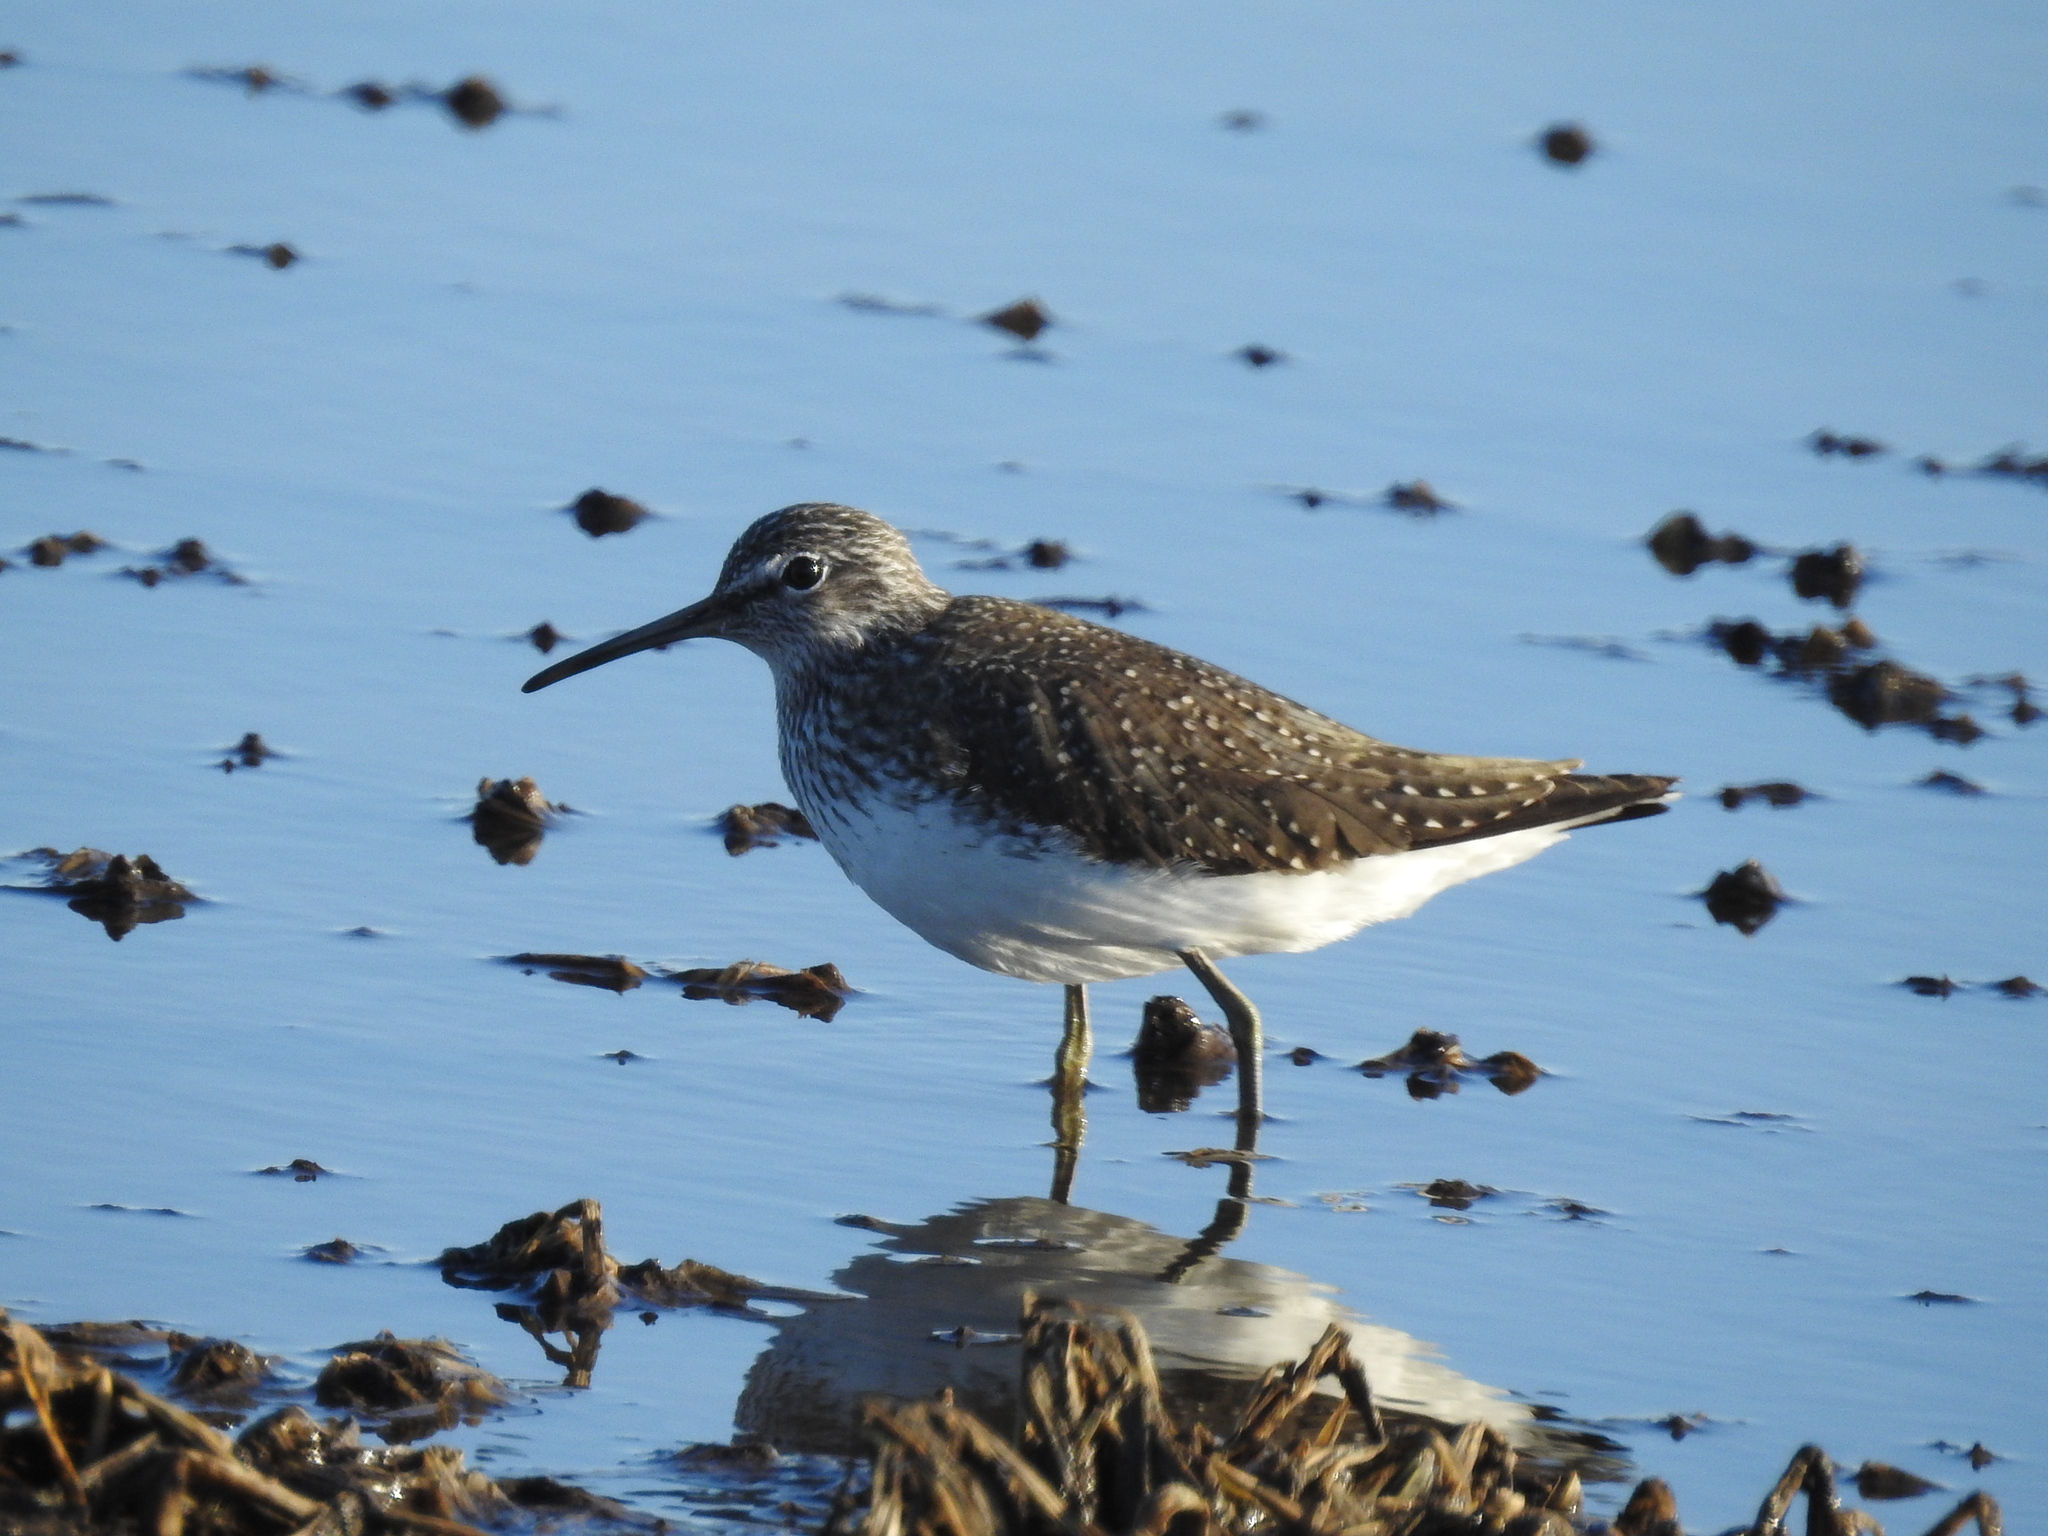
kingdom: Animalia
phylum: Chordata
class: Aves
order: Charadriiformes
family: Scolopacidae
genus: Tringa
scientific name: Tringa ochropus
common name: Green sandpiper
